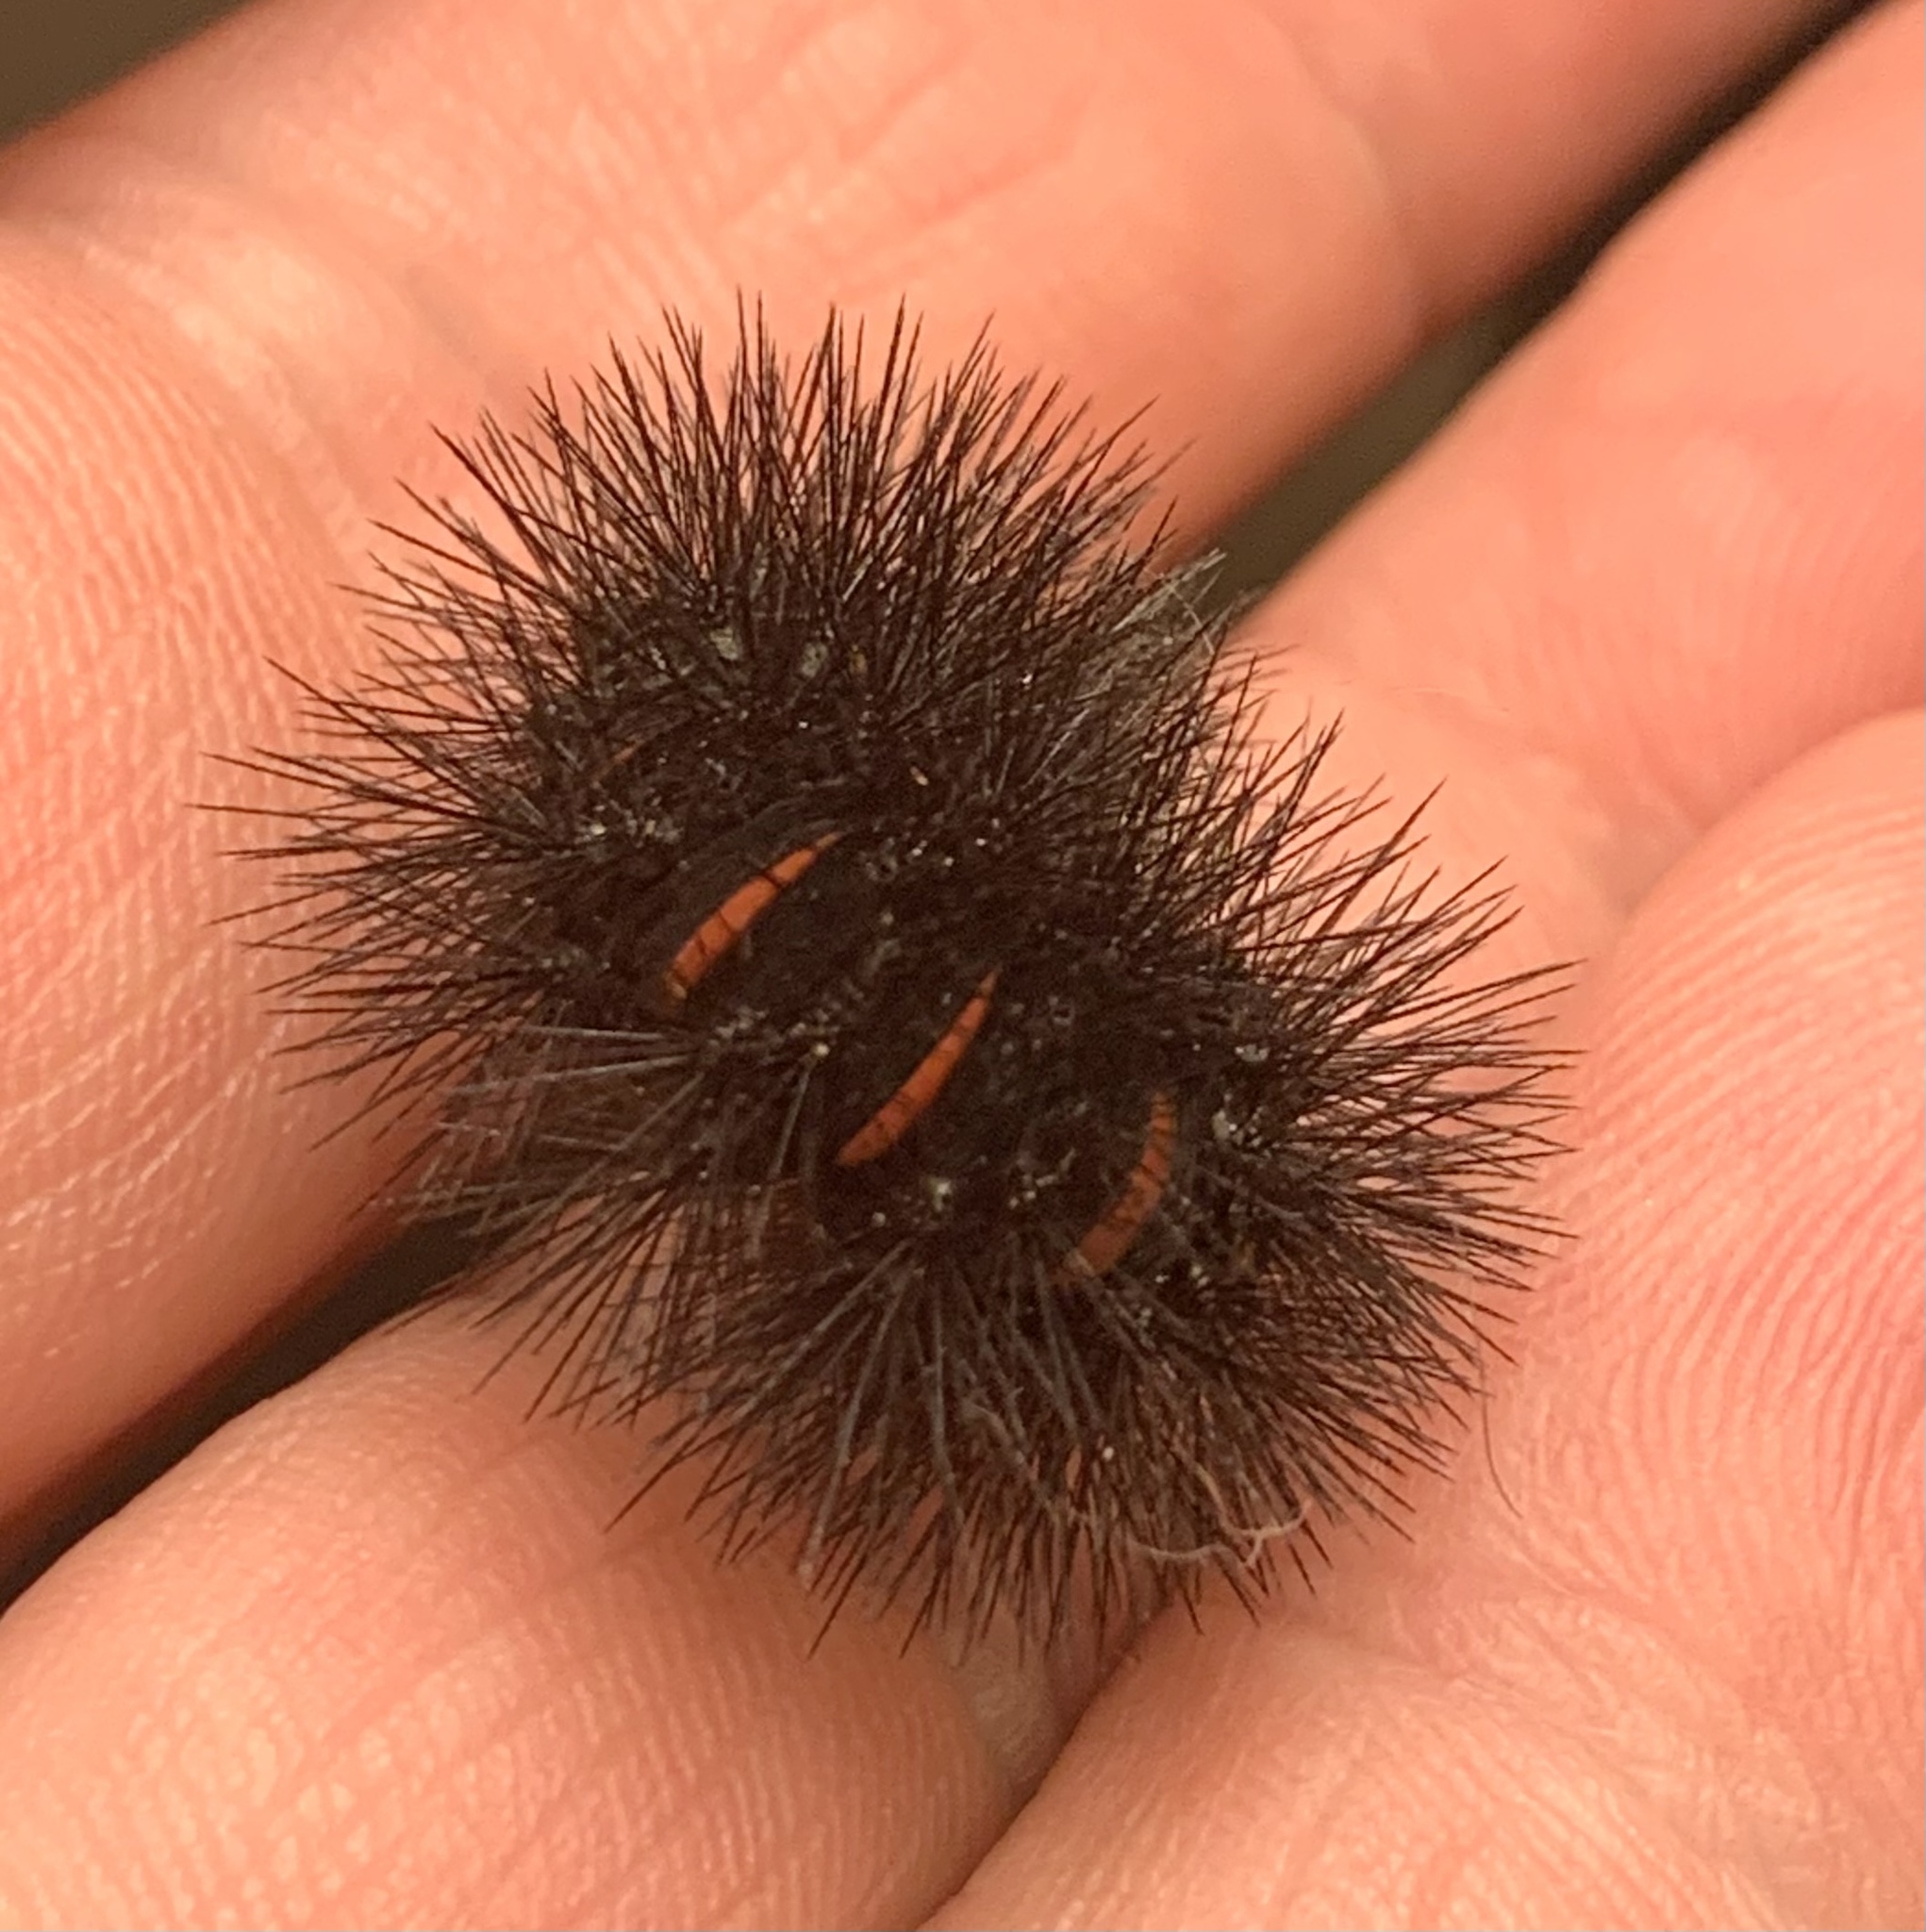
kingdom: Animalia
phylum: Arthropoda
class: Insecta
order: Lepidoptera
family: Erebidae
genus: Hypercompe
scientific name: Hypercompe scribonia
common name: Giant leopard moth
